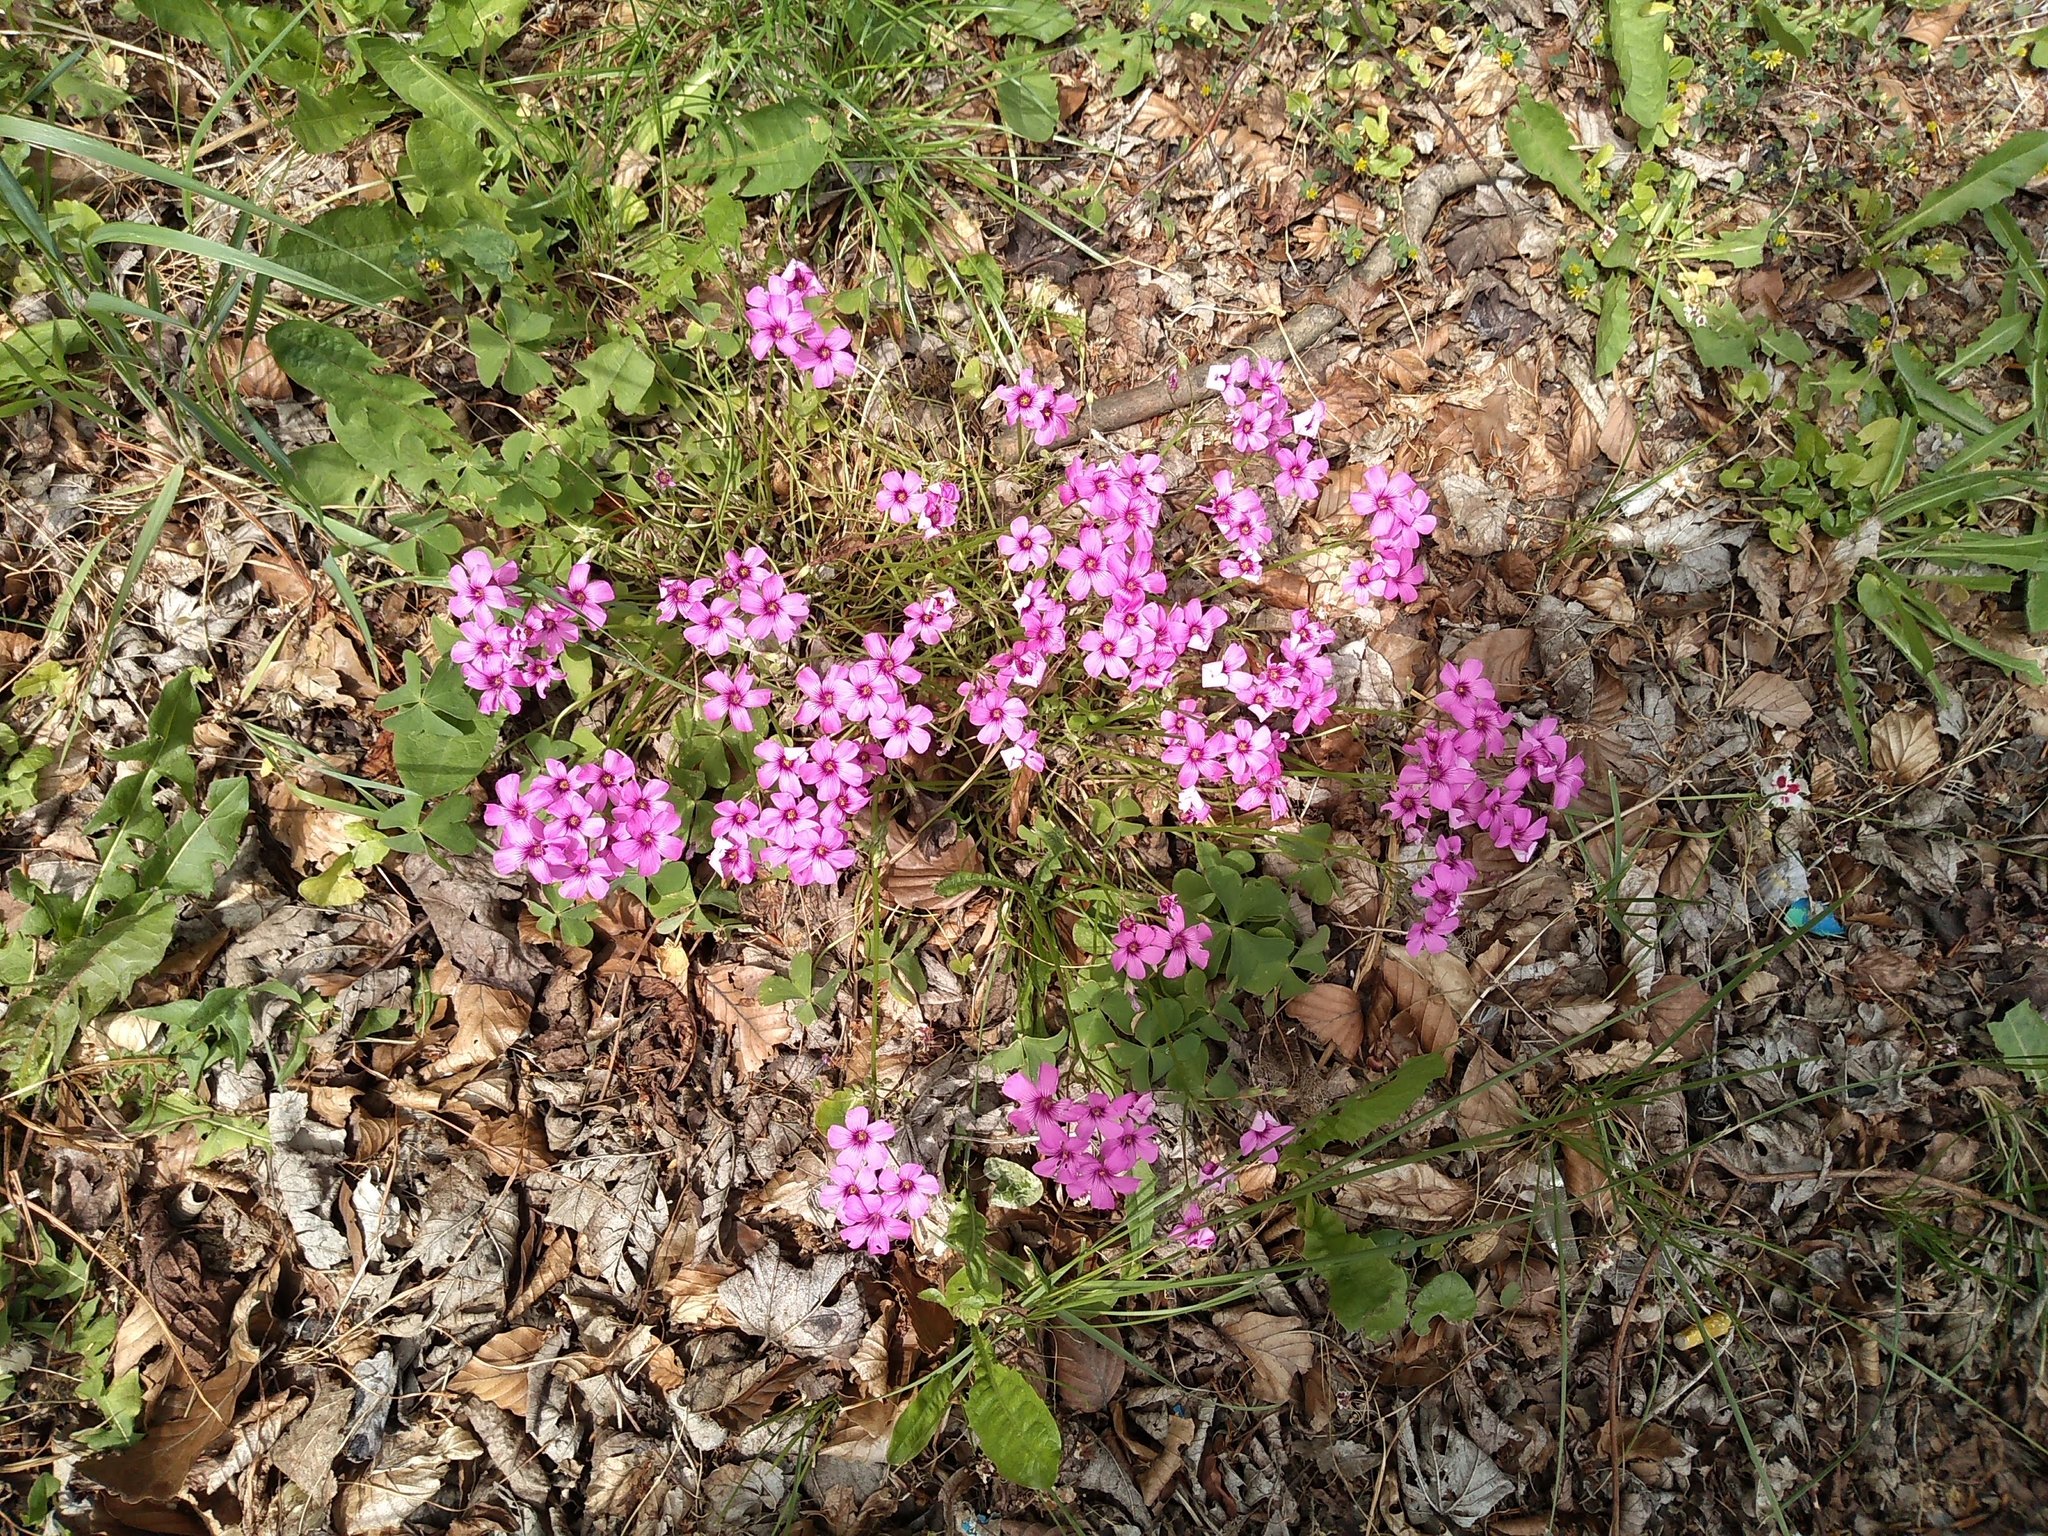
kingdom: Plantae
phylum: Tracheophyta
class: Magnoliopsida
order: Oxalidales
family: Oxalidaceae
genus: Oxalis
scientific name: Oxalis articulata
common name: Pink-sorrel
